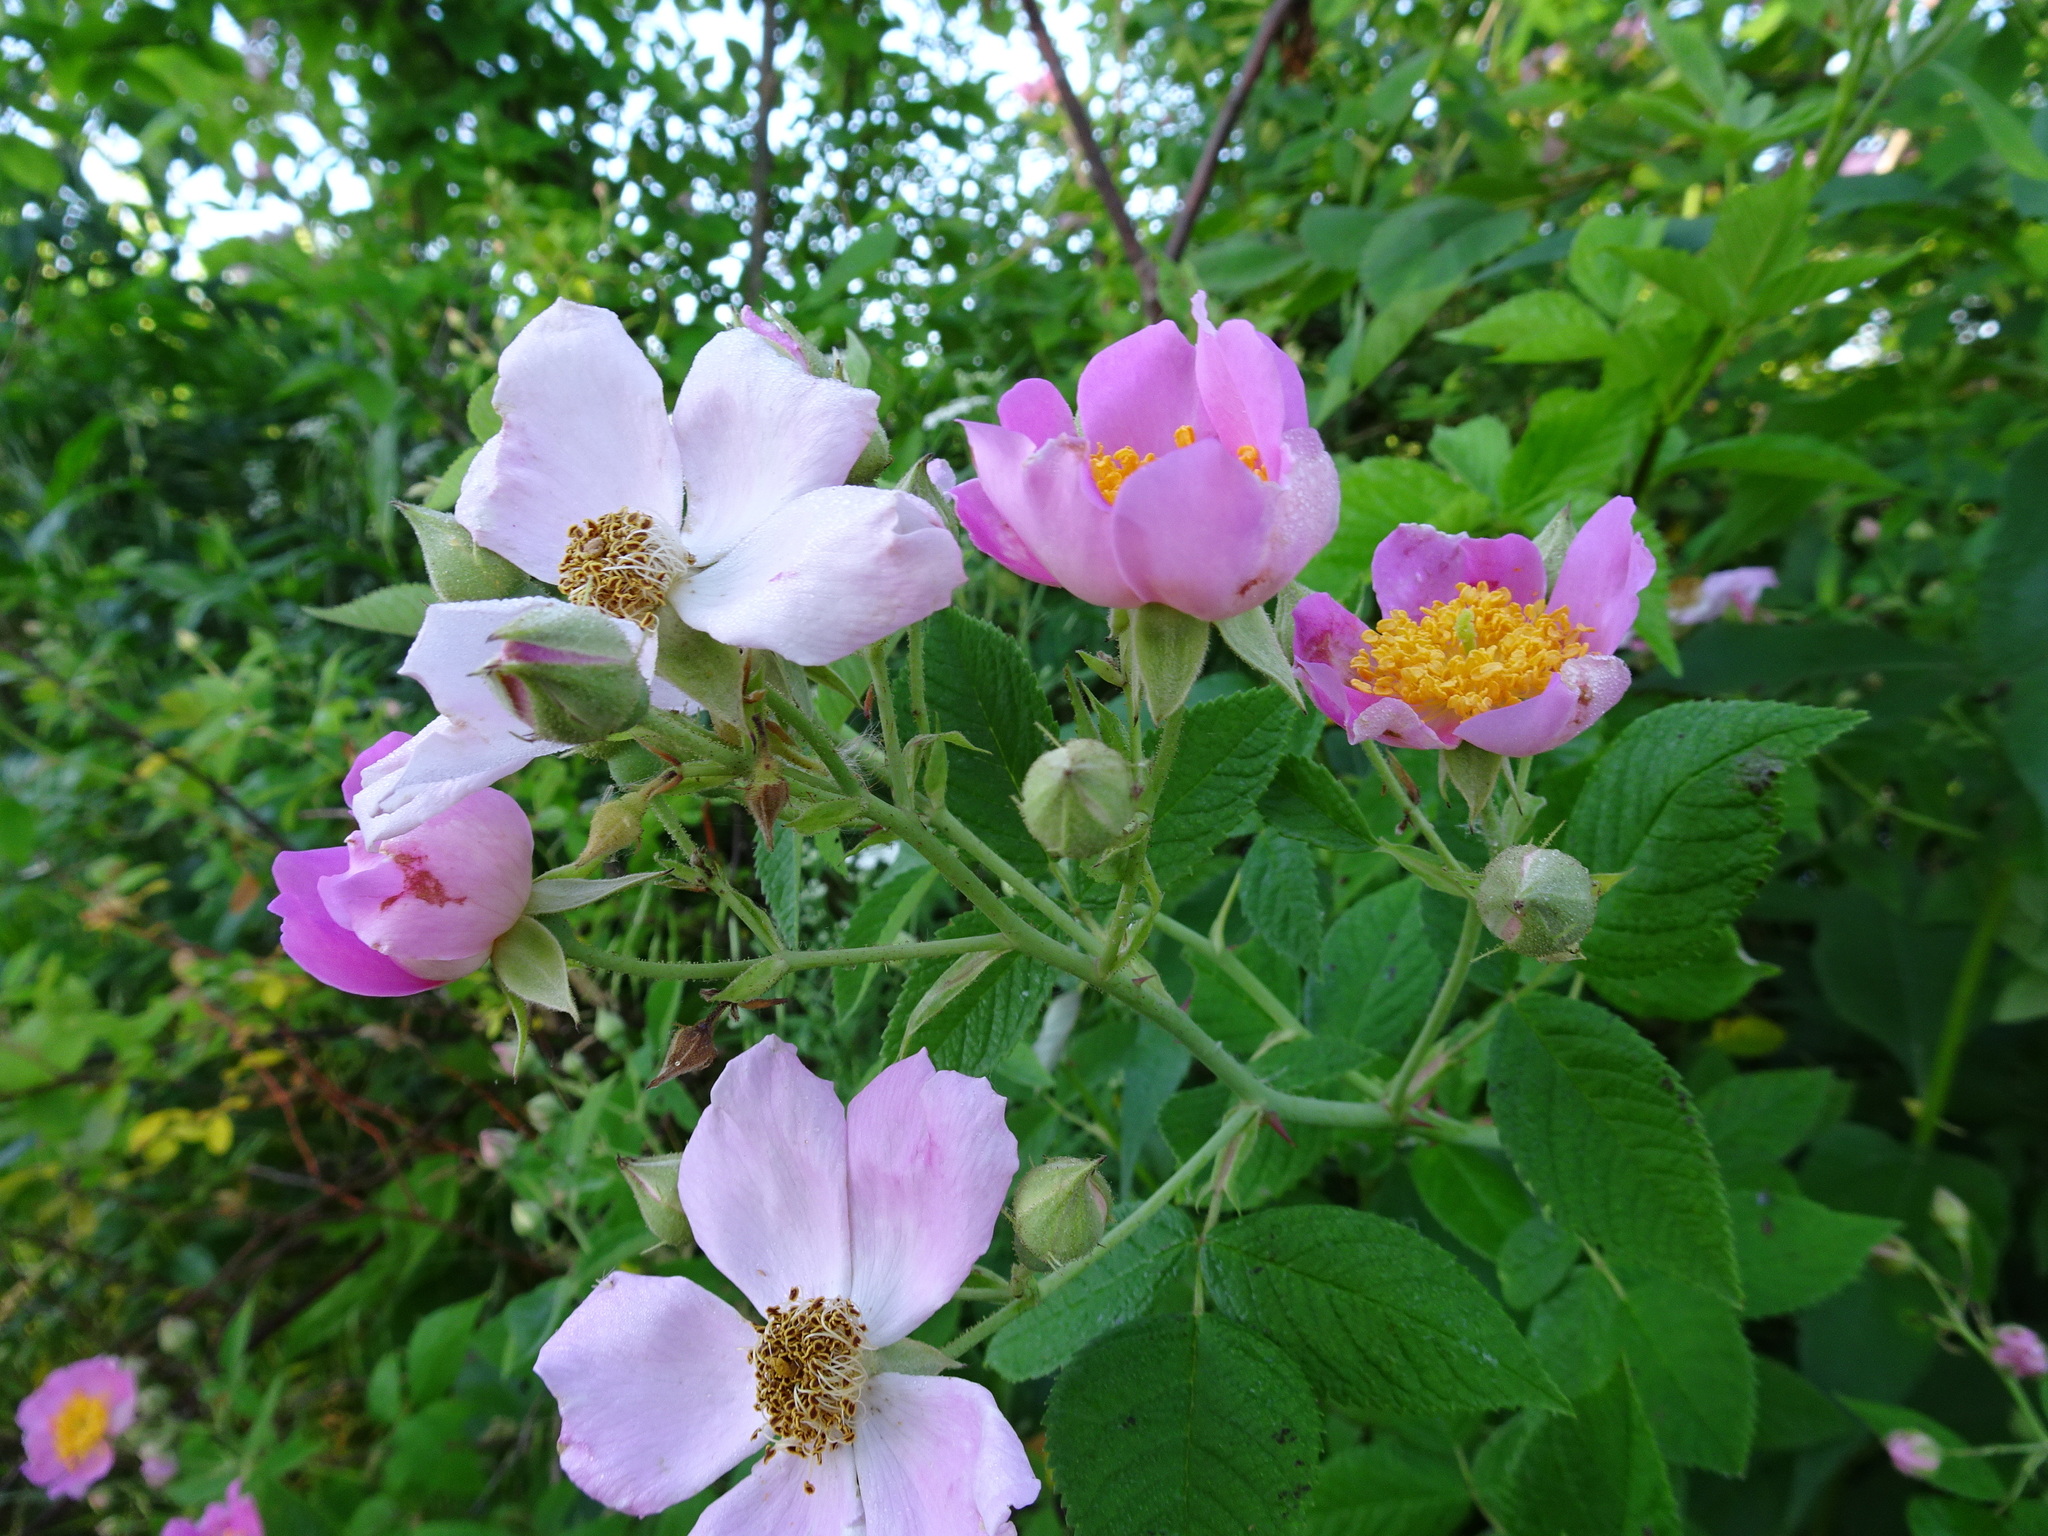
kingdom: Plantae
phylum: Tracheophyta
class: Magnoliopsida
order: Rosales
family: Rosaceae
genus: Rosa
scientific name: Rosa setigera
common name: Prairie rose
